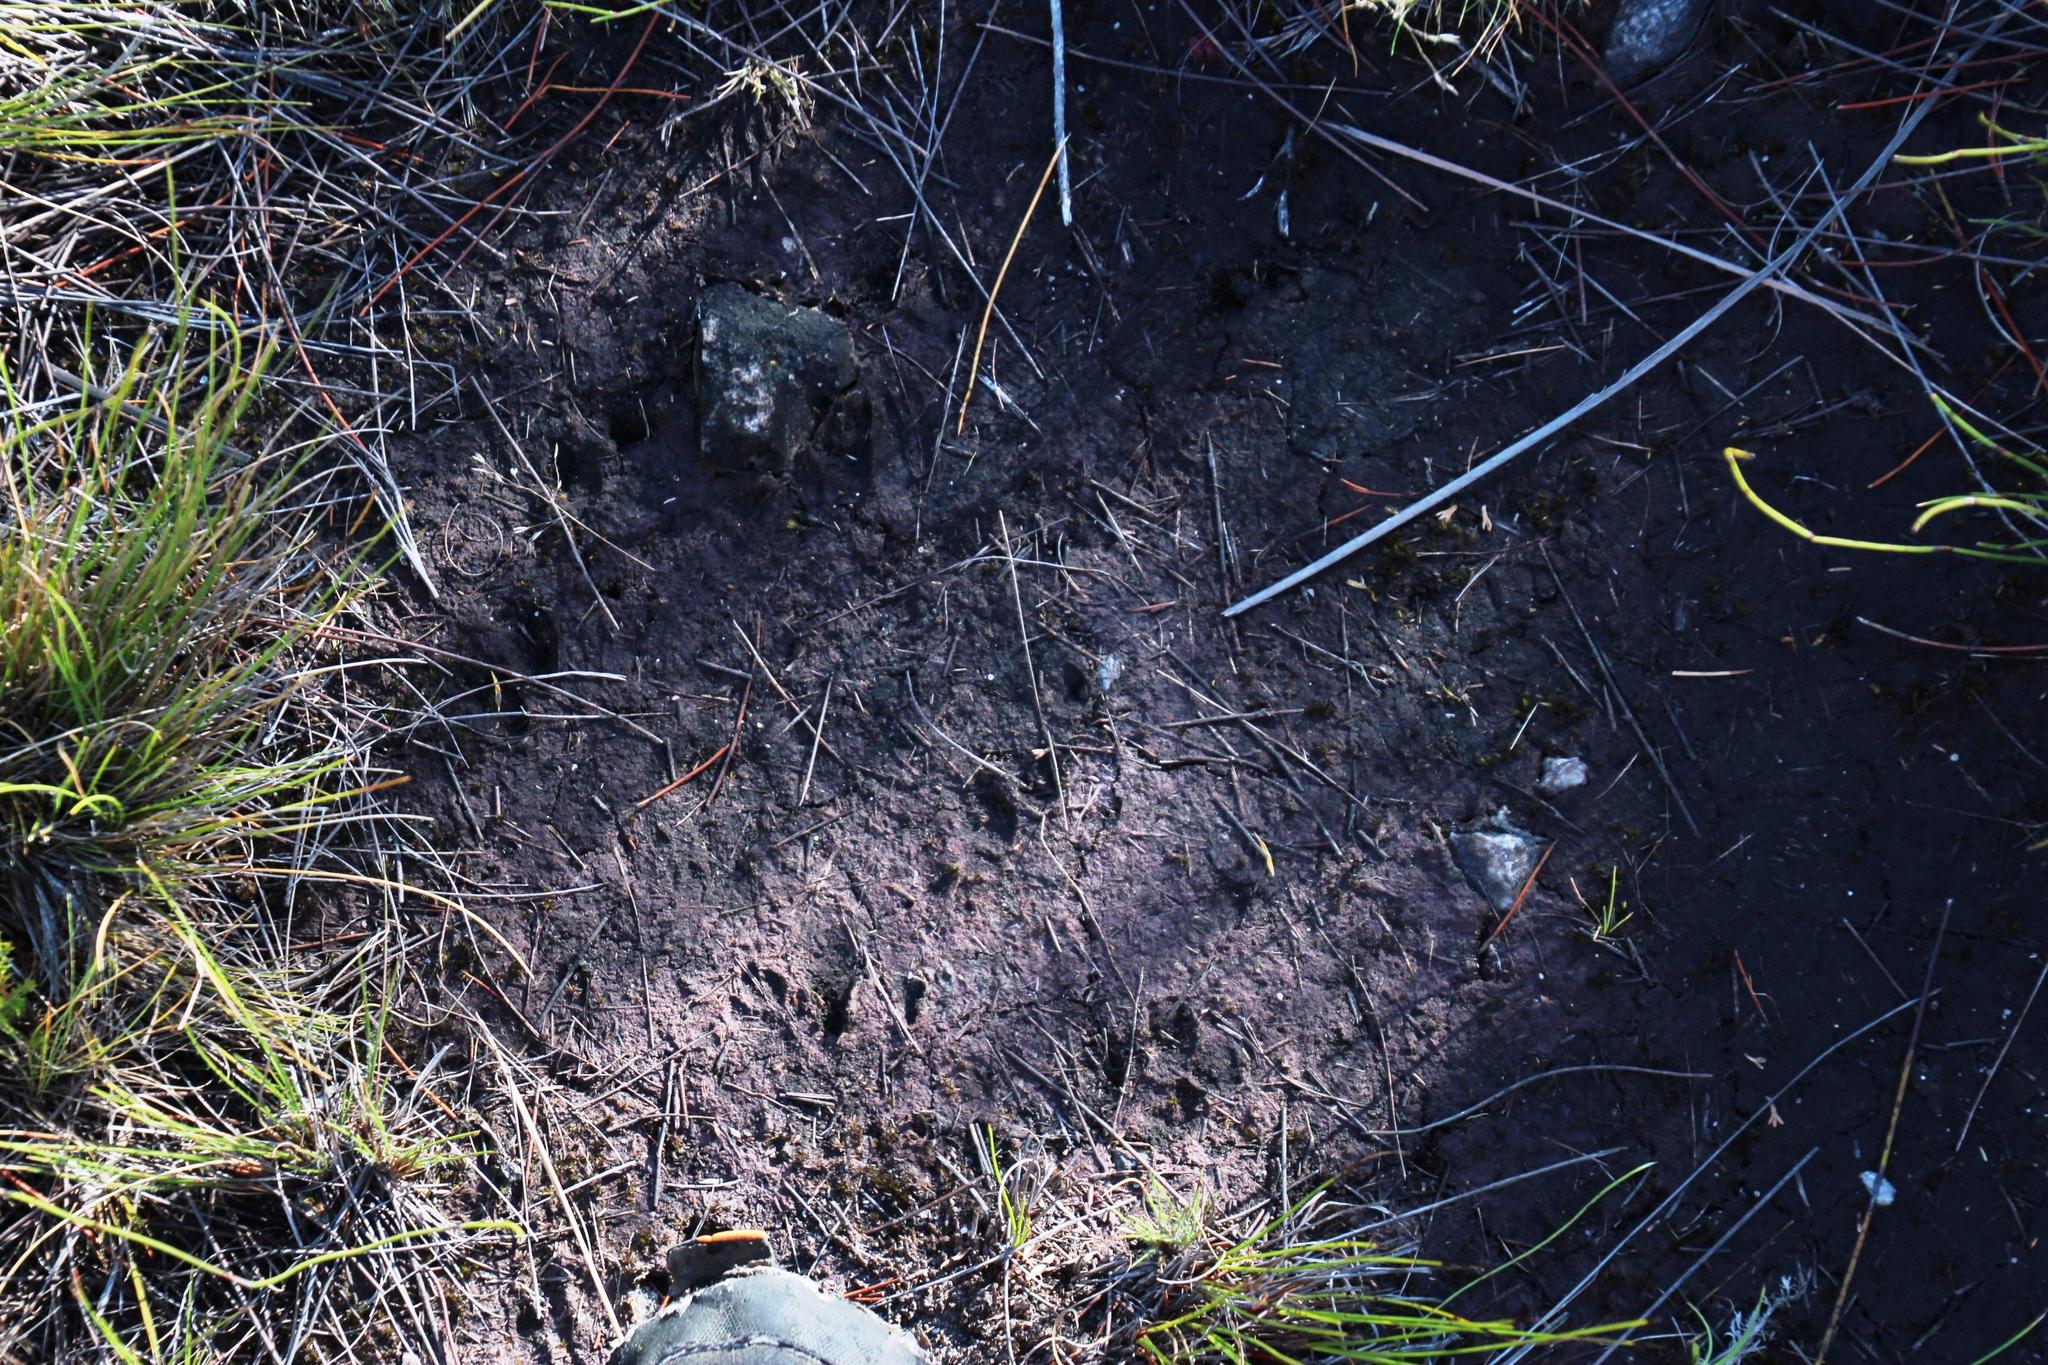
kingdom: Animalia
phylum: Chordata
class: Mammalia
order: Artiodactyla
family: Bovidae
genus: Oreotragus
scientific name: Oreotragus oreotragus
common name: Klipspringer
